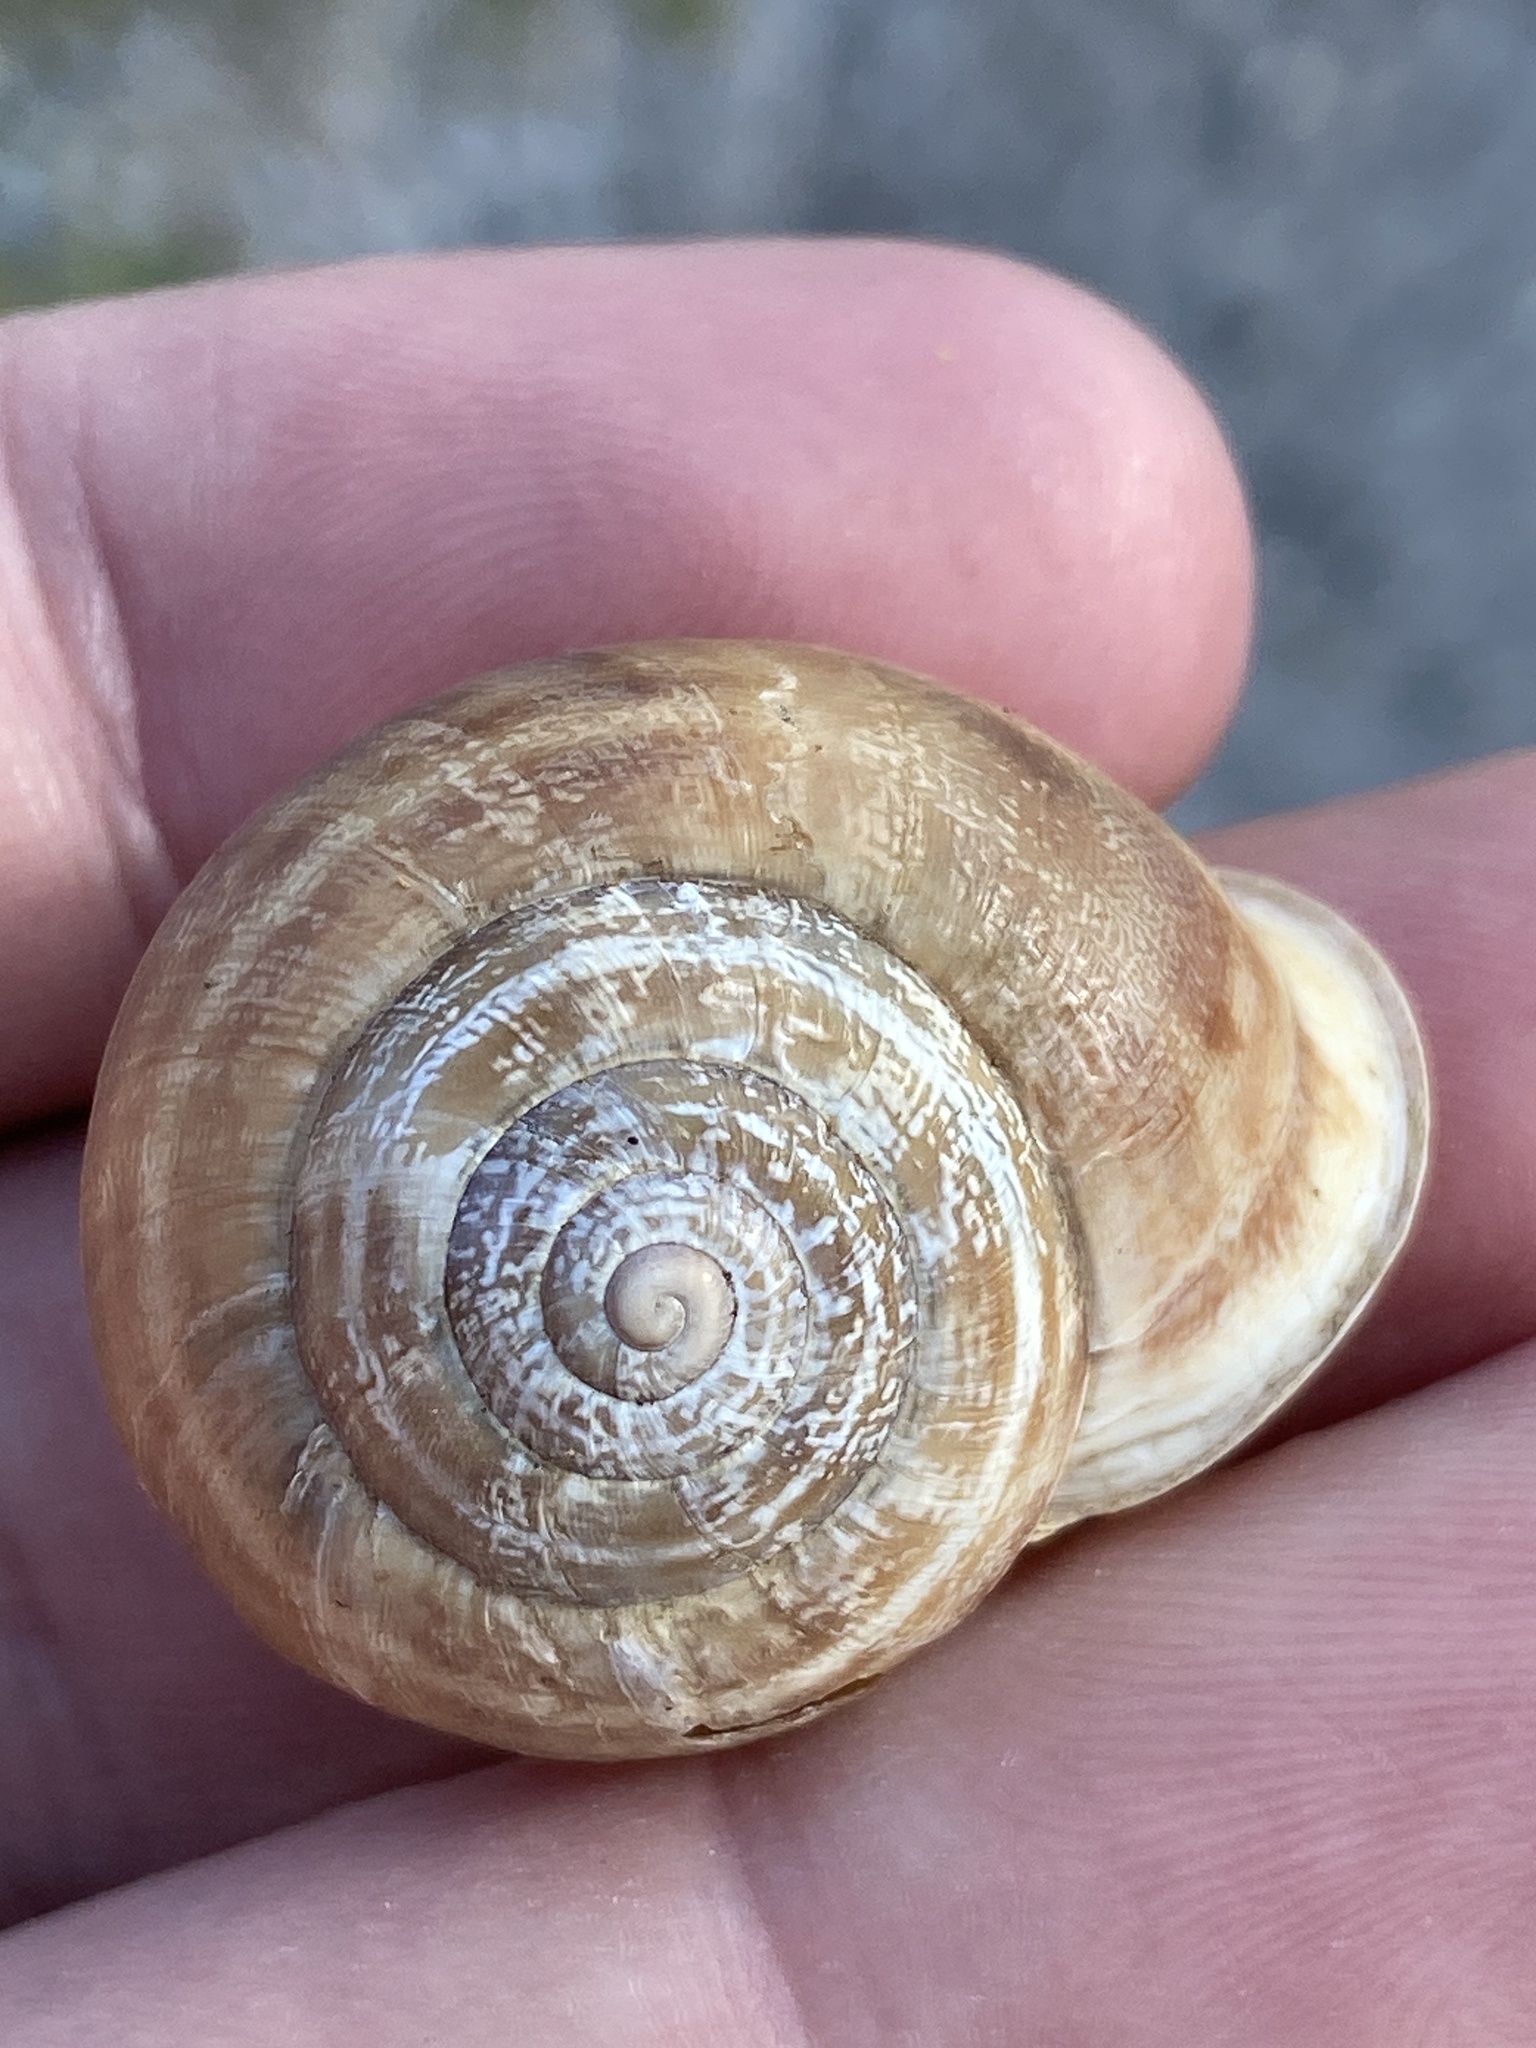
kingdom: Animalia
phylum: Mollusca
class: Gastropoda
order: Stylommatophora
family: Helicidae
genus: Eobania
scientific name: Eobania vermiculata
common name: Chocolateband snail
